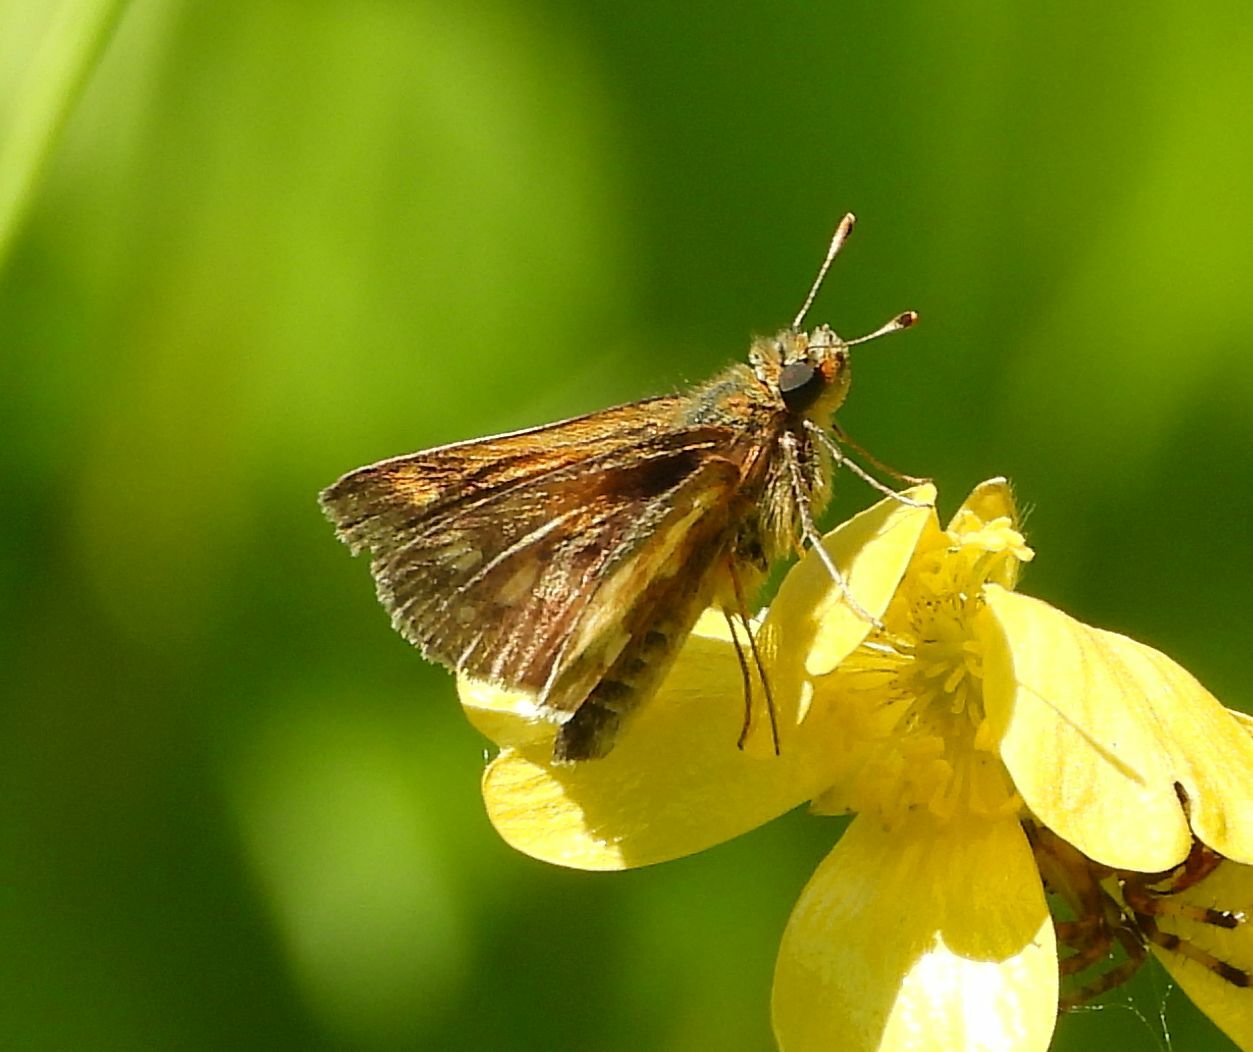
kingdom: Animalia
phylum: Arthropoda
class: Insecta
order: Lepidoptera
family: Hesperiidae
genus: Polites
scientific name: Polites coras
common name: Peck's skipper
